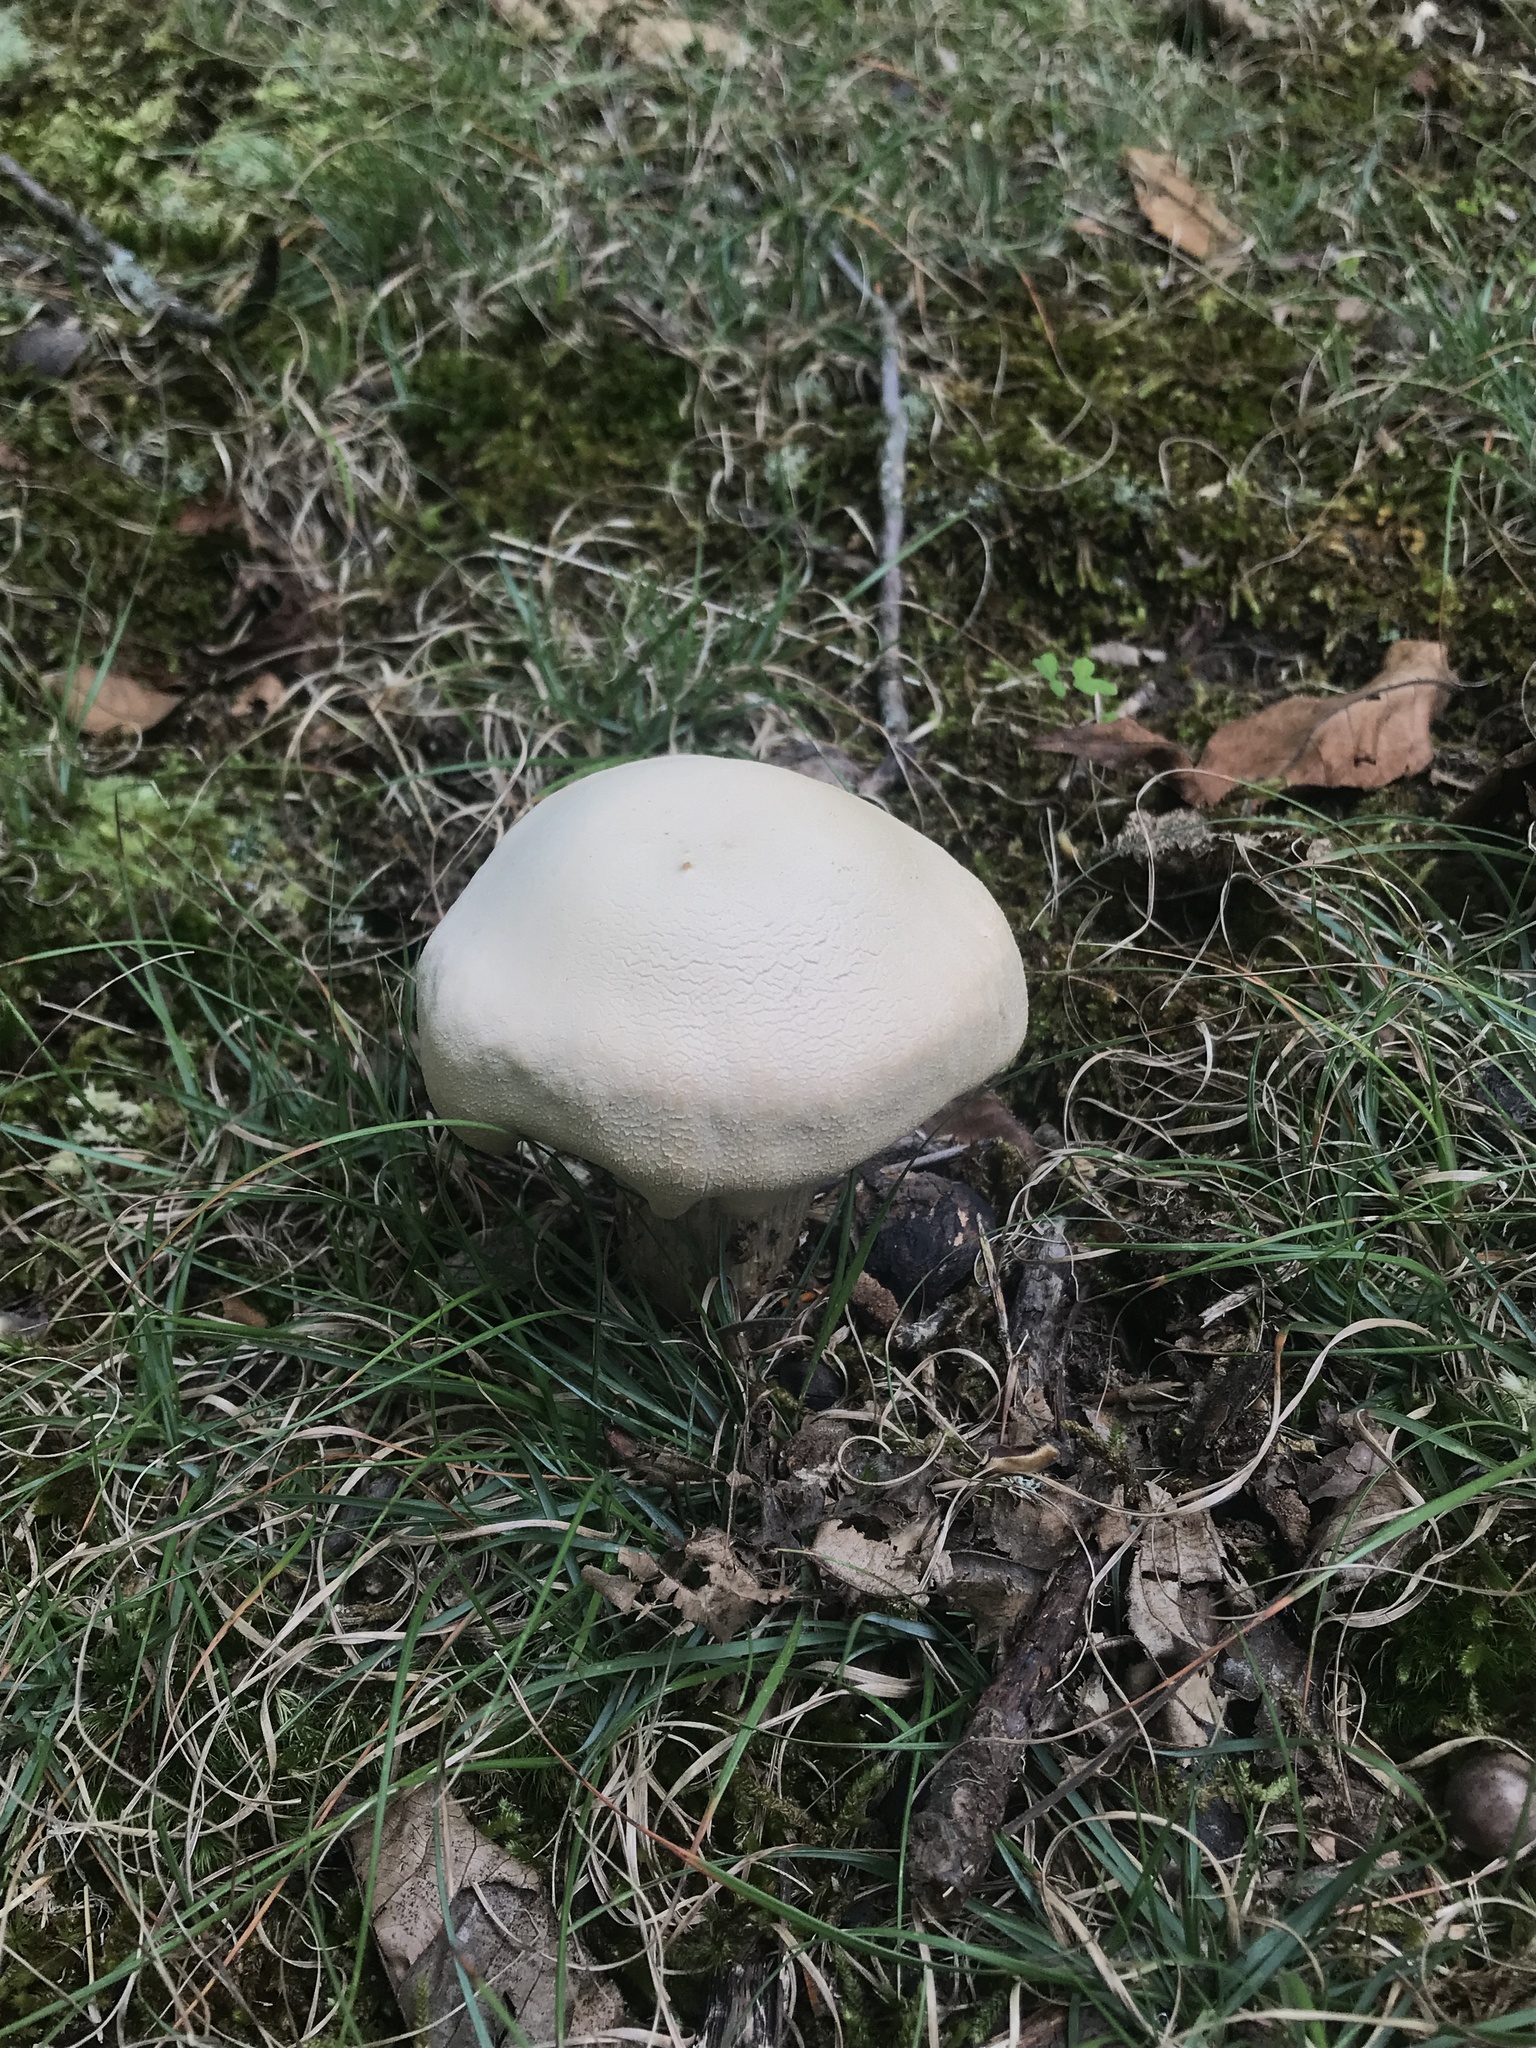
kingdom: Fungi
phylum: Basidiomycota
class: Agaricomycetes
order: Agaricales
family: Hydnangiaceae
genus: Laccaria
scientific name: Laccaria ochropurpurea
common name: Purple laccaria
